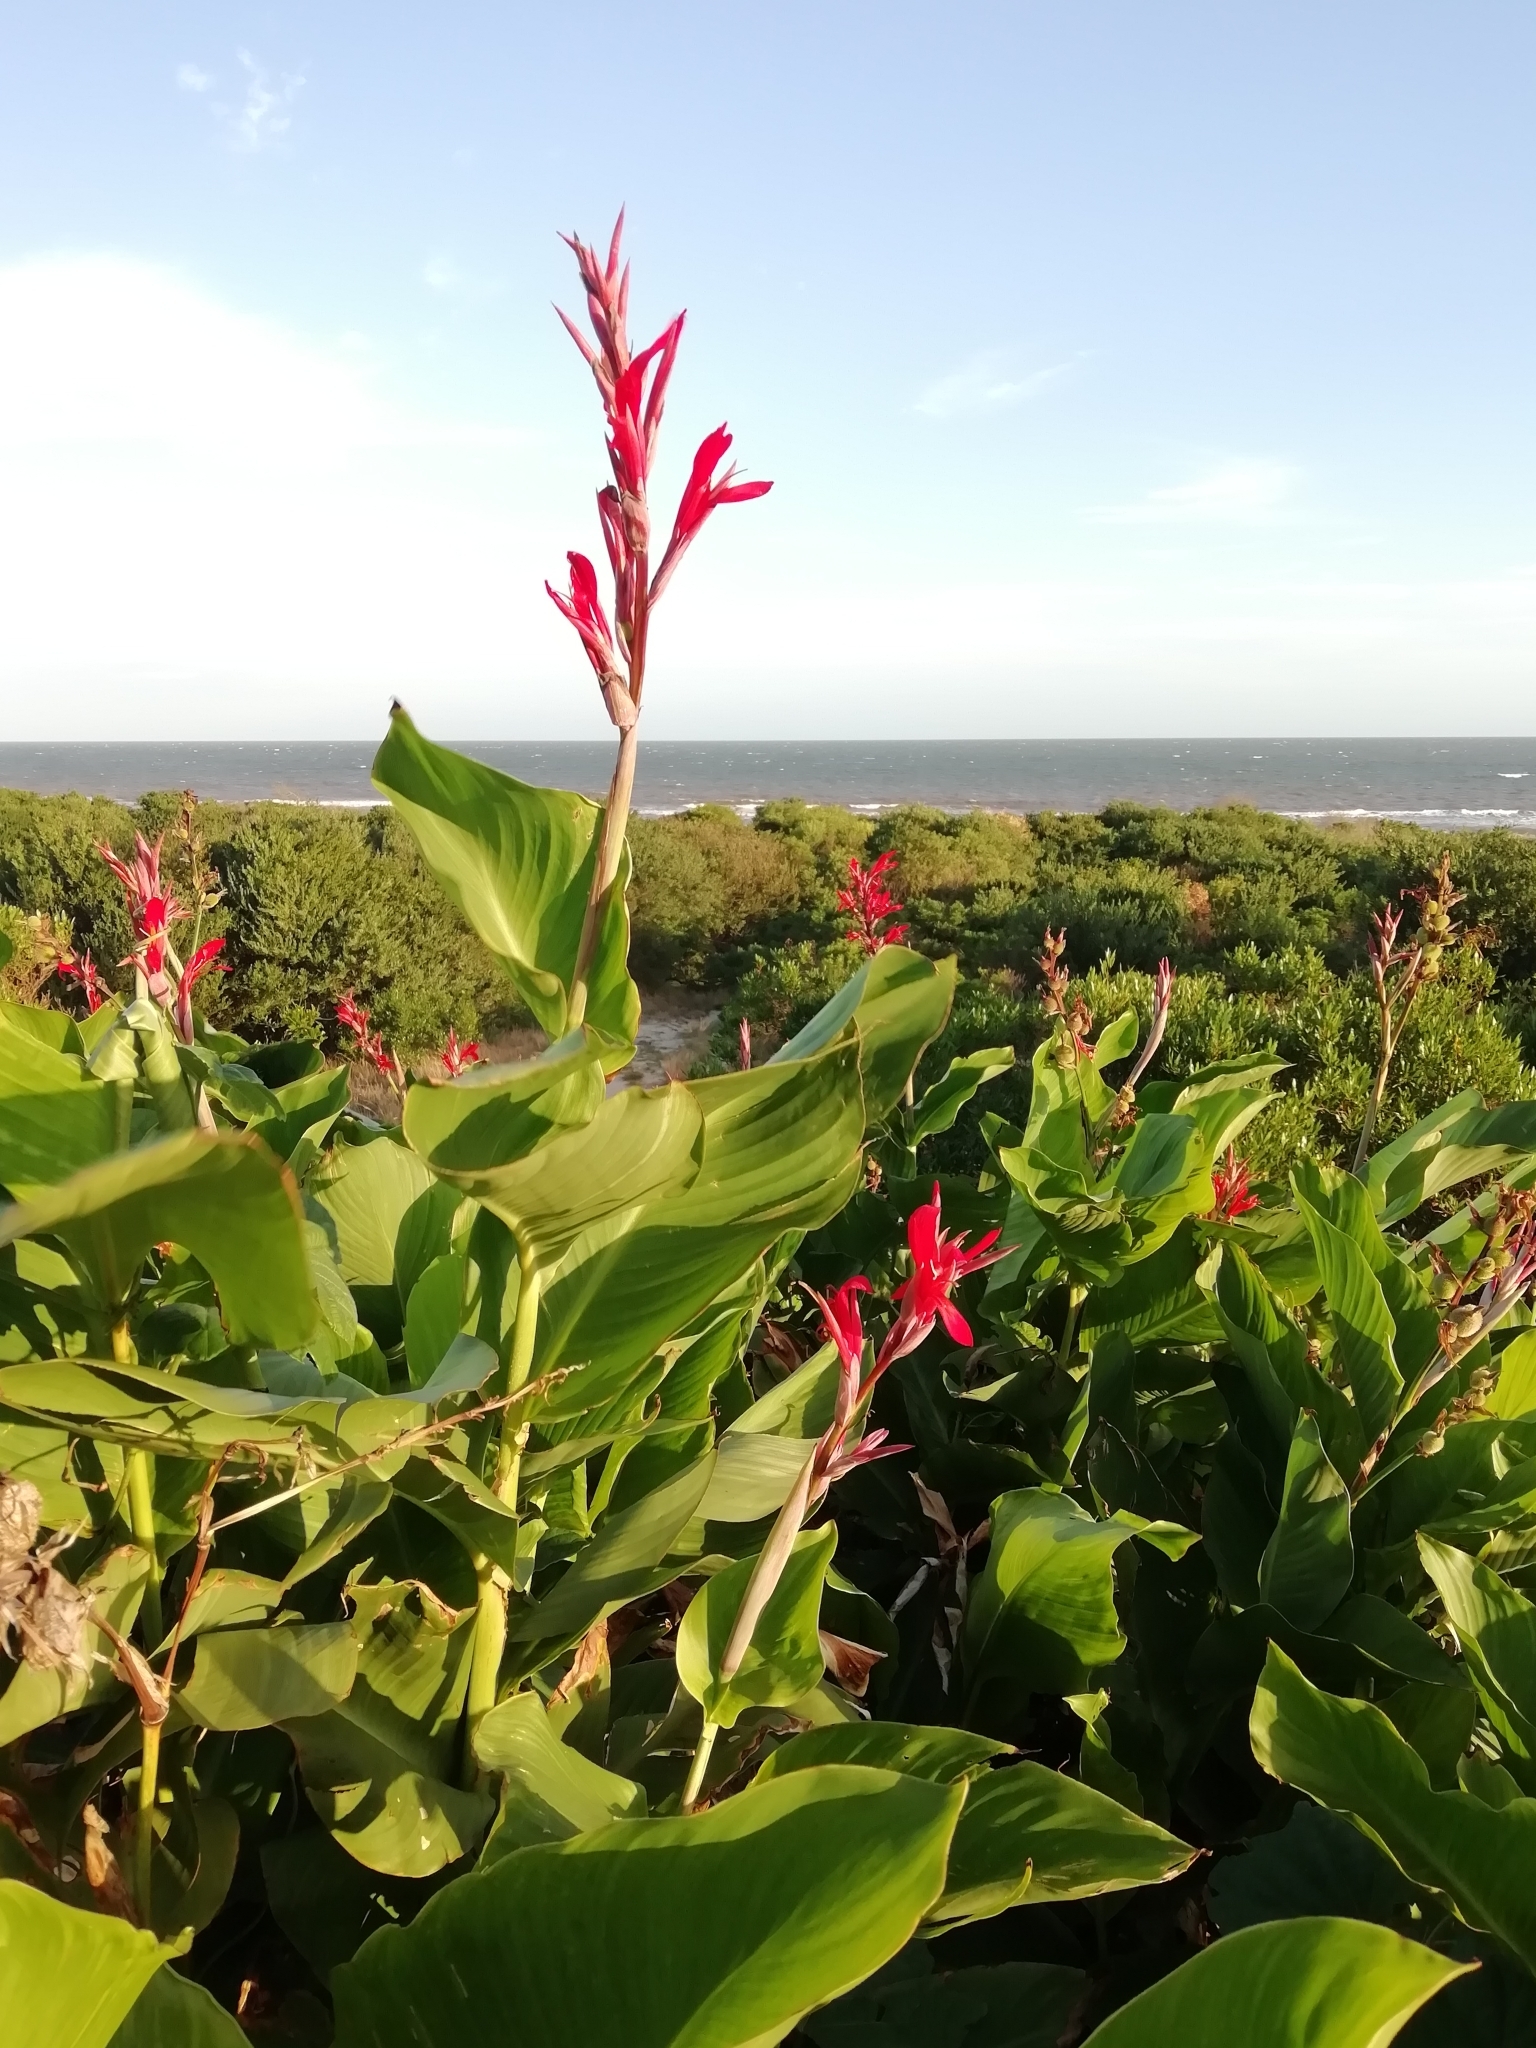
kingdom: Plantae
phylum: Tracheophyta
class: Liliopsida
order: Zingiberales
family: Cannaceae
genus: Canna
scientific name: Canna indica
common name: Indian shot
